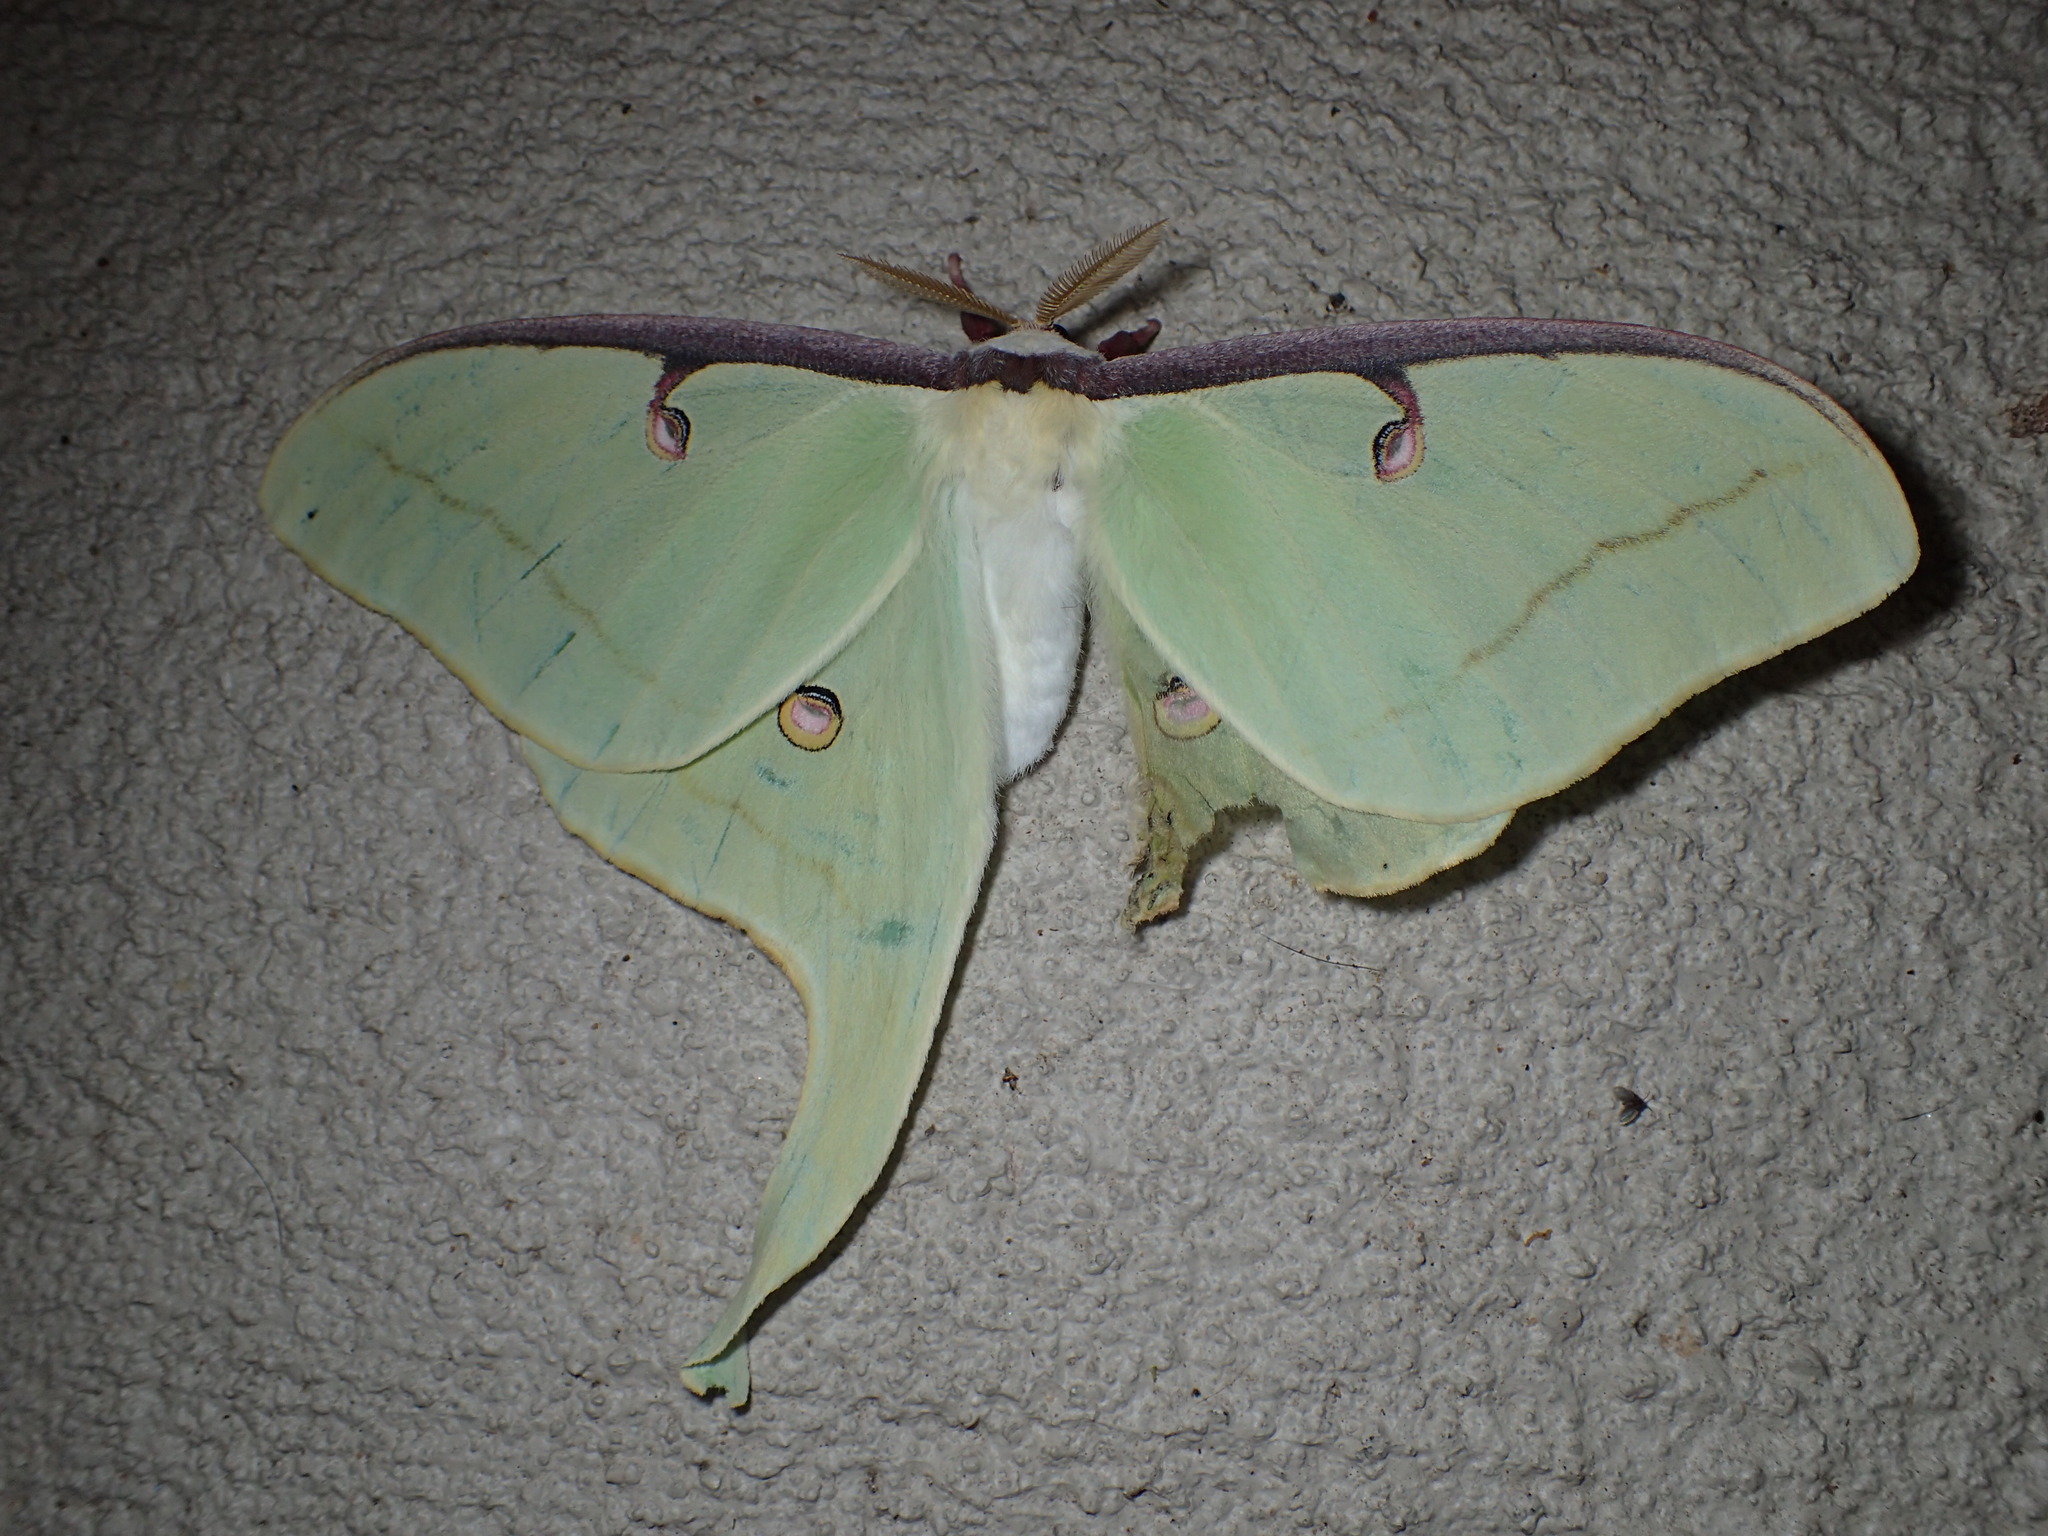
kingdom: Animalia
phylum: Arthropoda
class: Insecta
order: Lepidoptera
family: Saturniidae
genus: Actias
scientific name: Actias luna
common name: Luna moth
